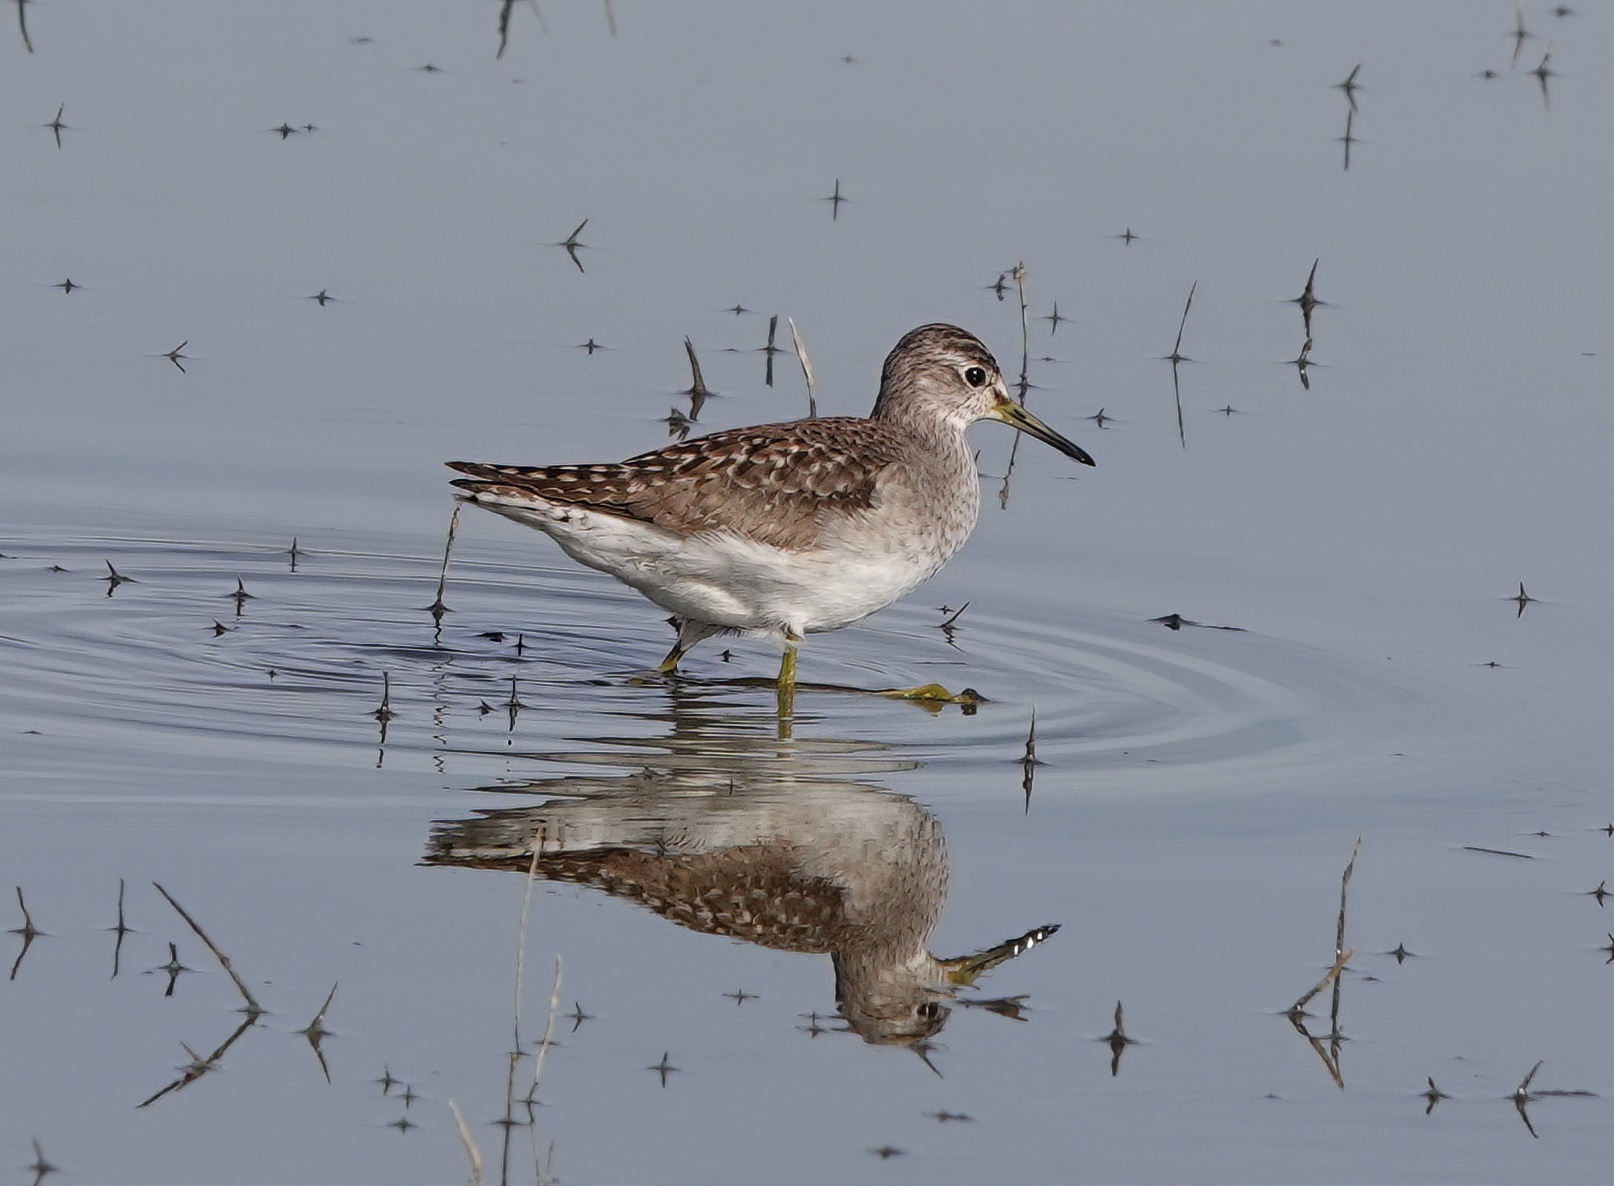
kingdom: Animalia
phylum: Chordata
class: Aves
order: Charadriiformes
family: Scolopacidae
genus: Tringa
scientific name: Tringa glareola
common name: Wood sandpiper
